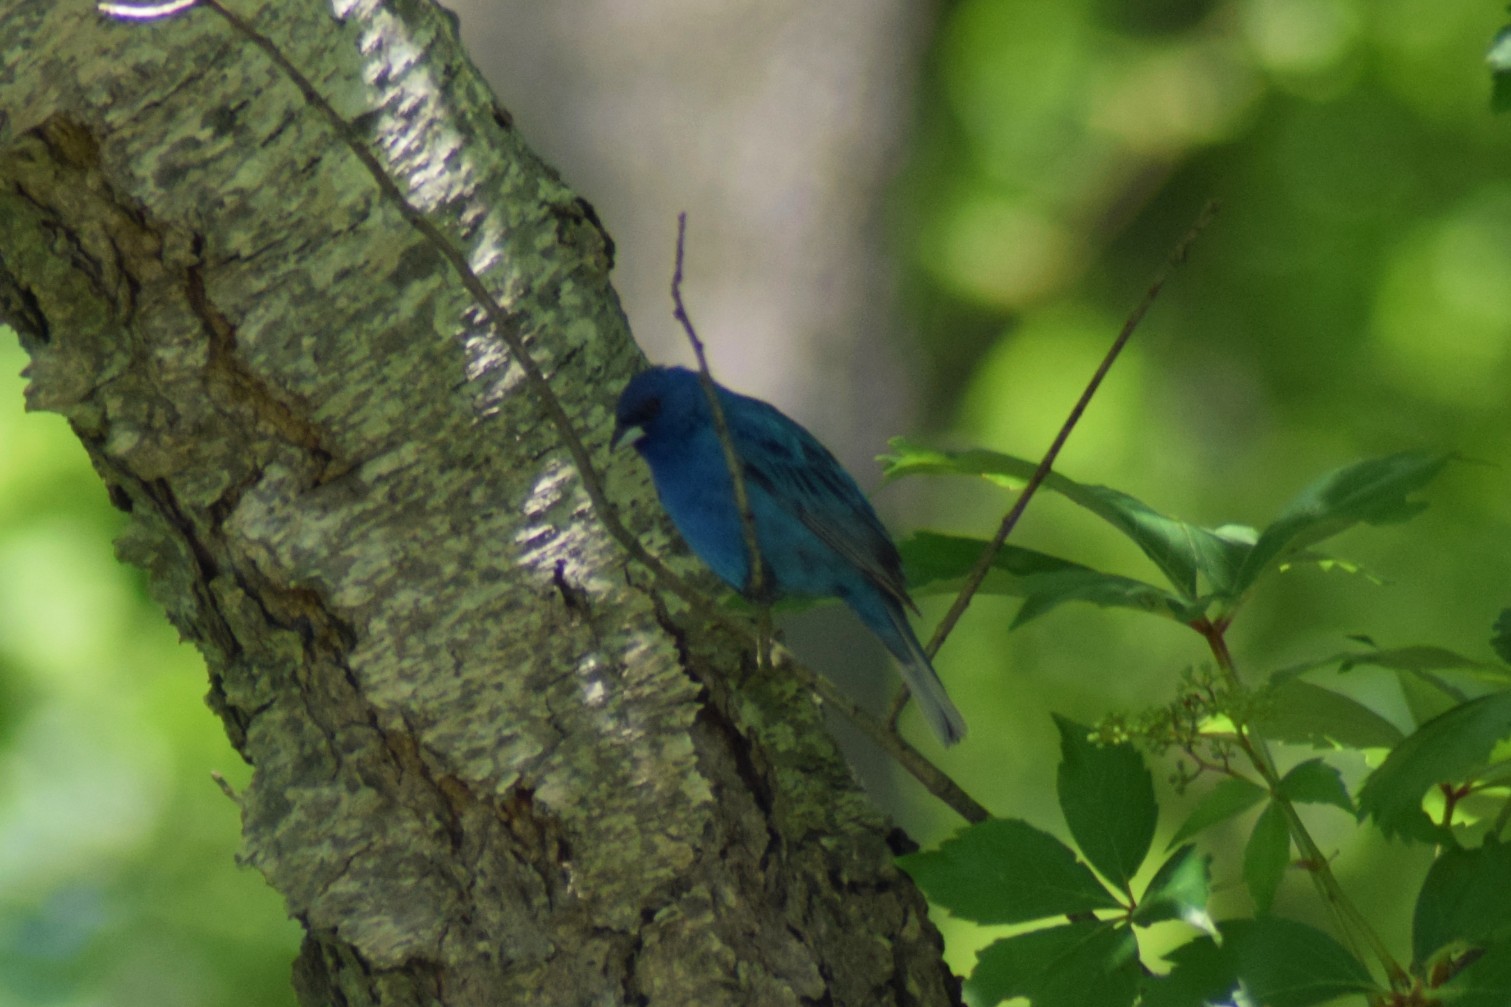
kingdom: Animalia
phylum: Chordata
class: Aves
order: Passeriformes
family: Cardinalidae
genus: Passerina
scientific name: Passerina cyanea
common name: Indigo bunting
